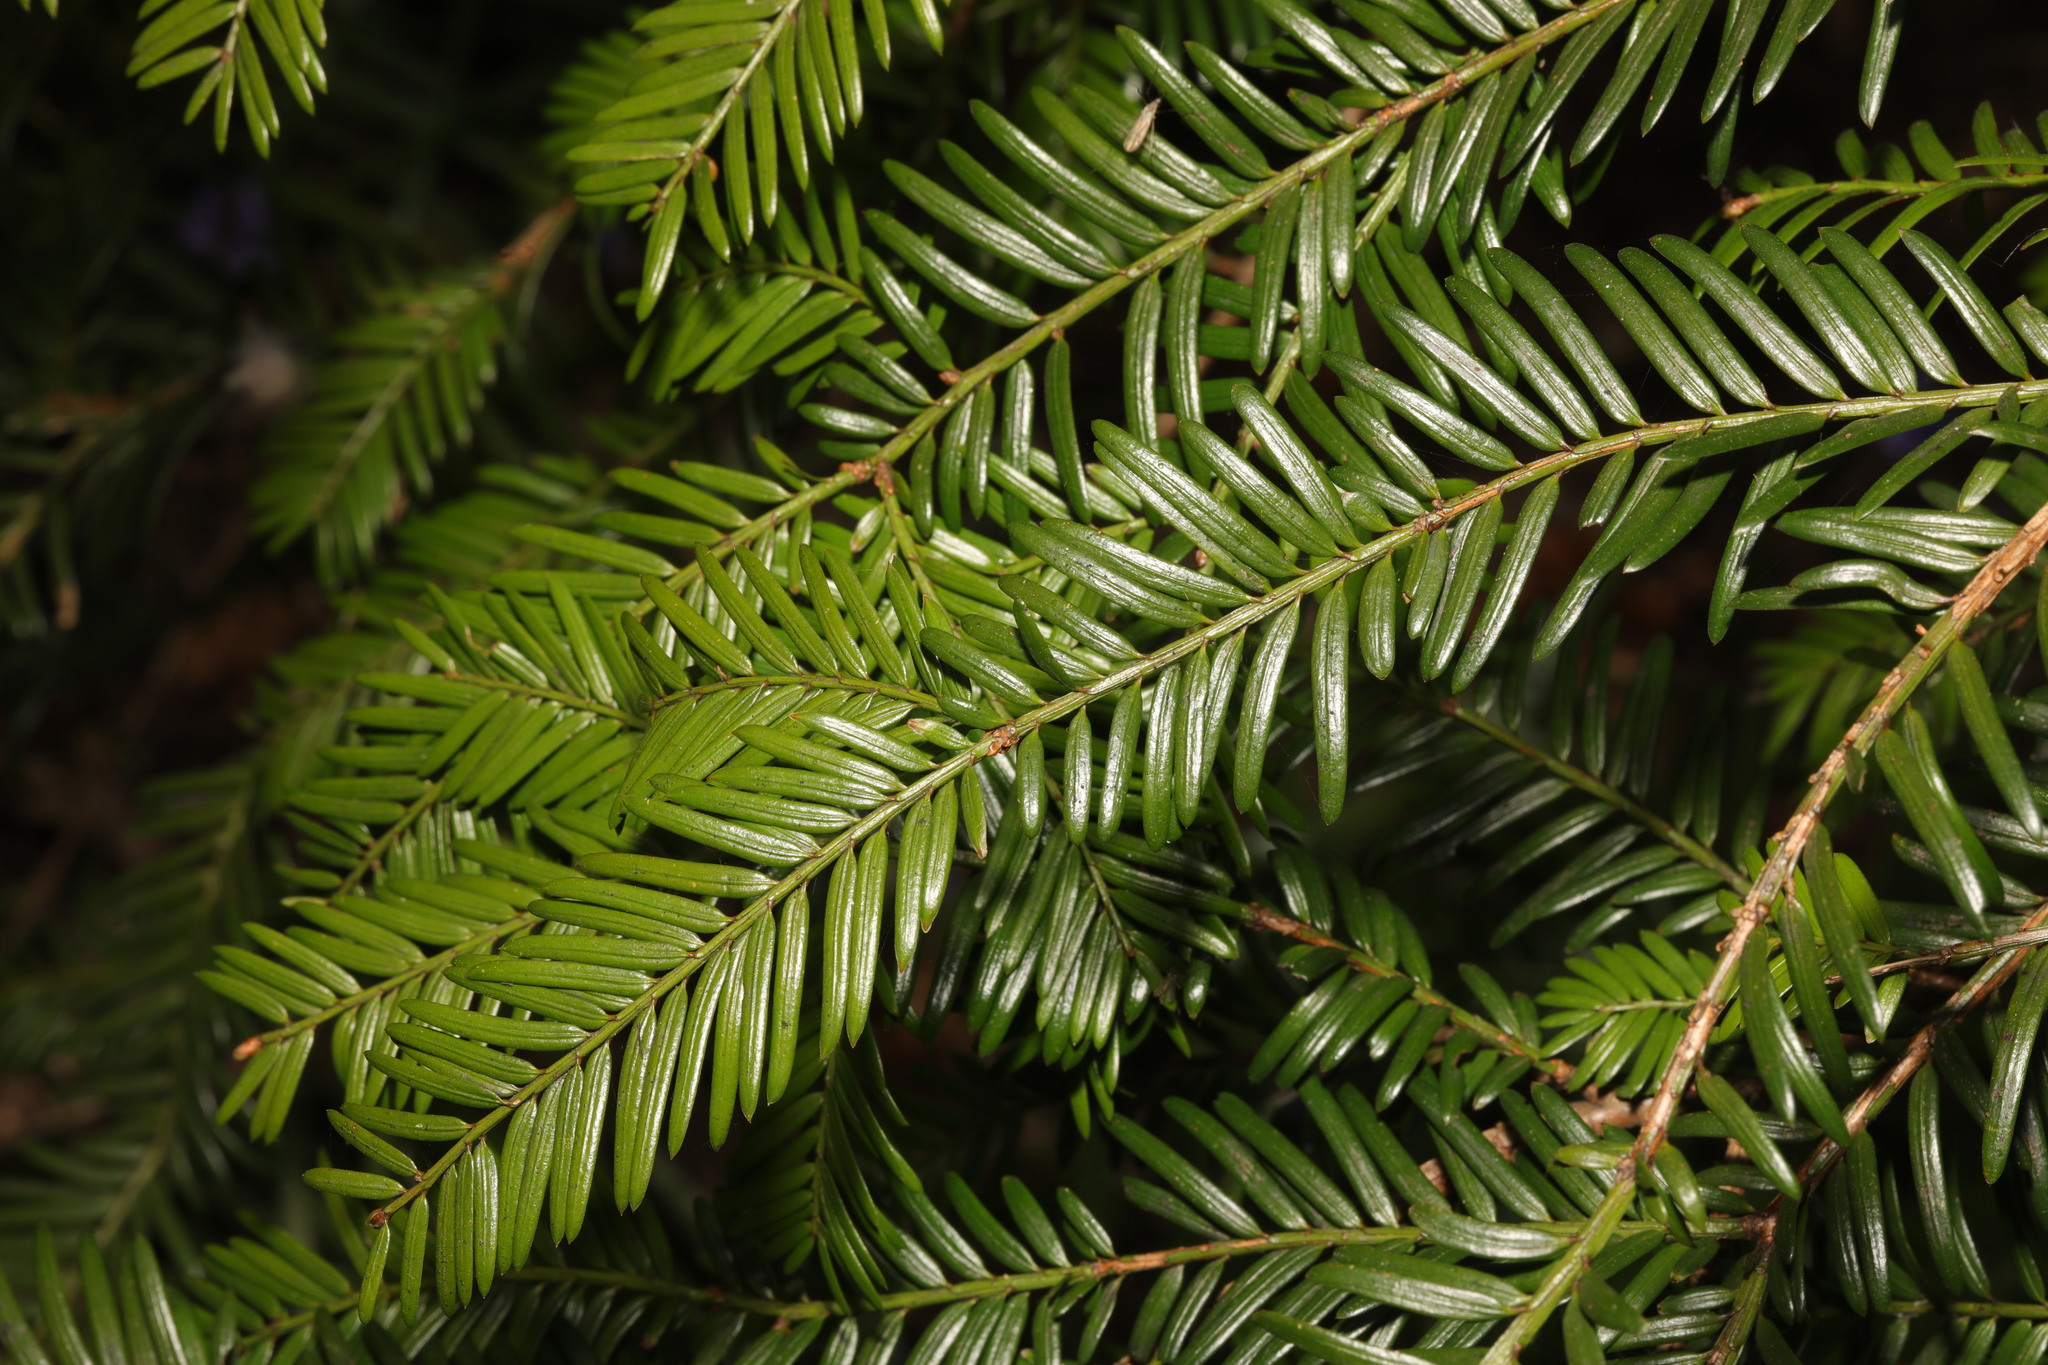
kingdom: Plantae
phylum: Tracheophyta
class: Pinopsida
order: Pinales
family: Taxaceae
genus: Taxus
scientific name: Taxus baccata
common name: Yew
